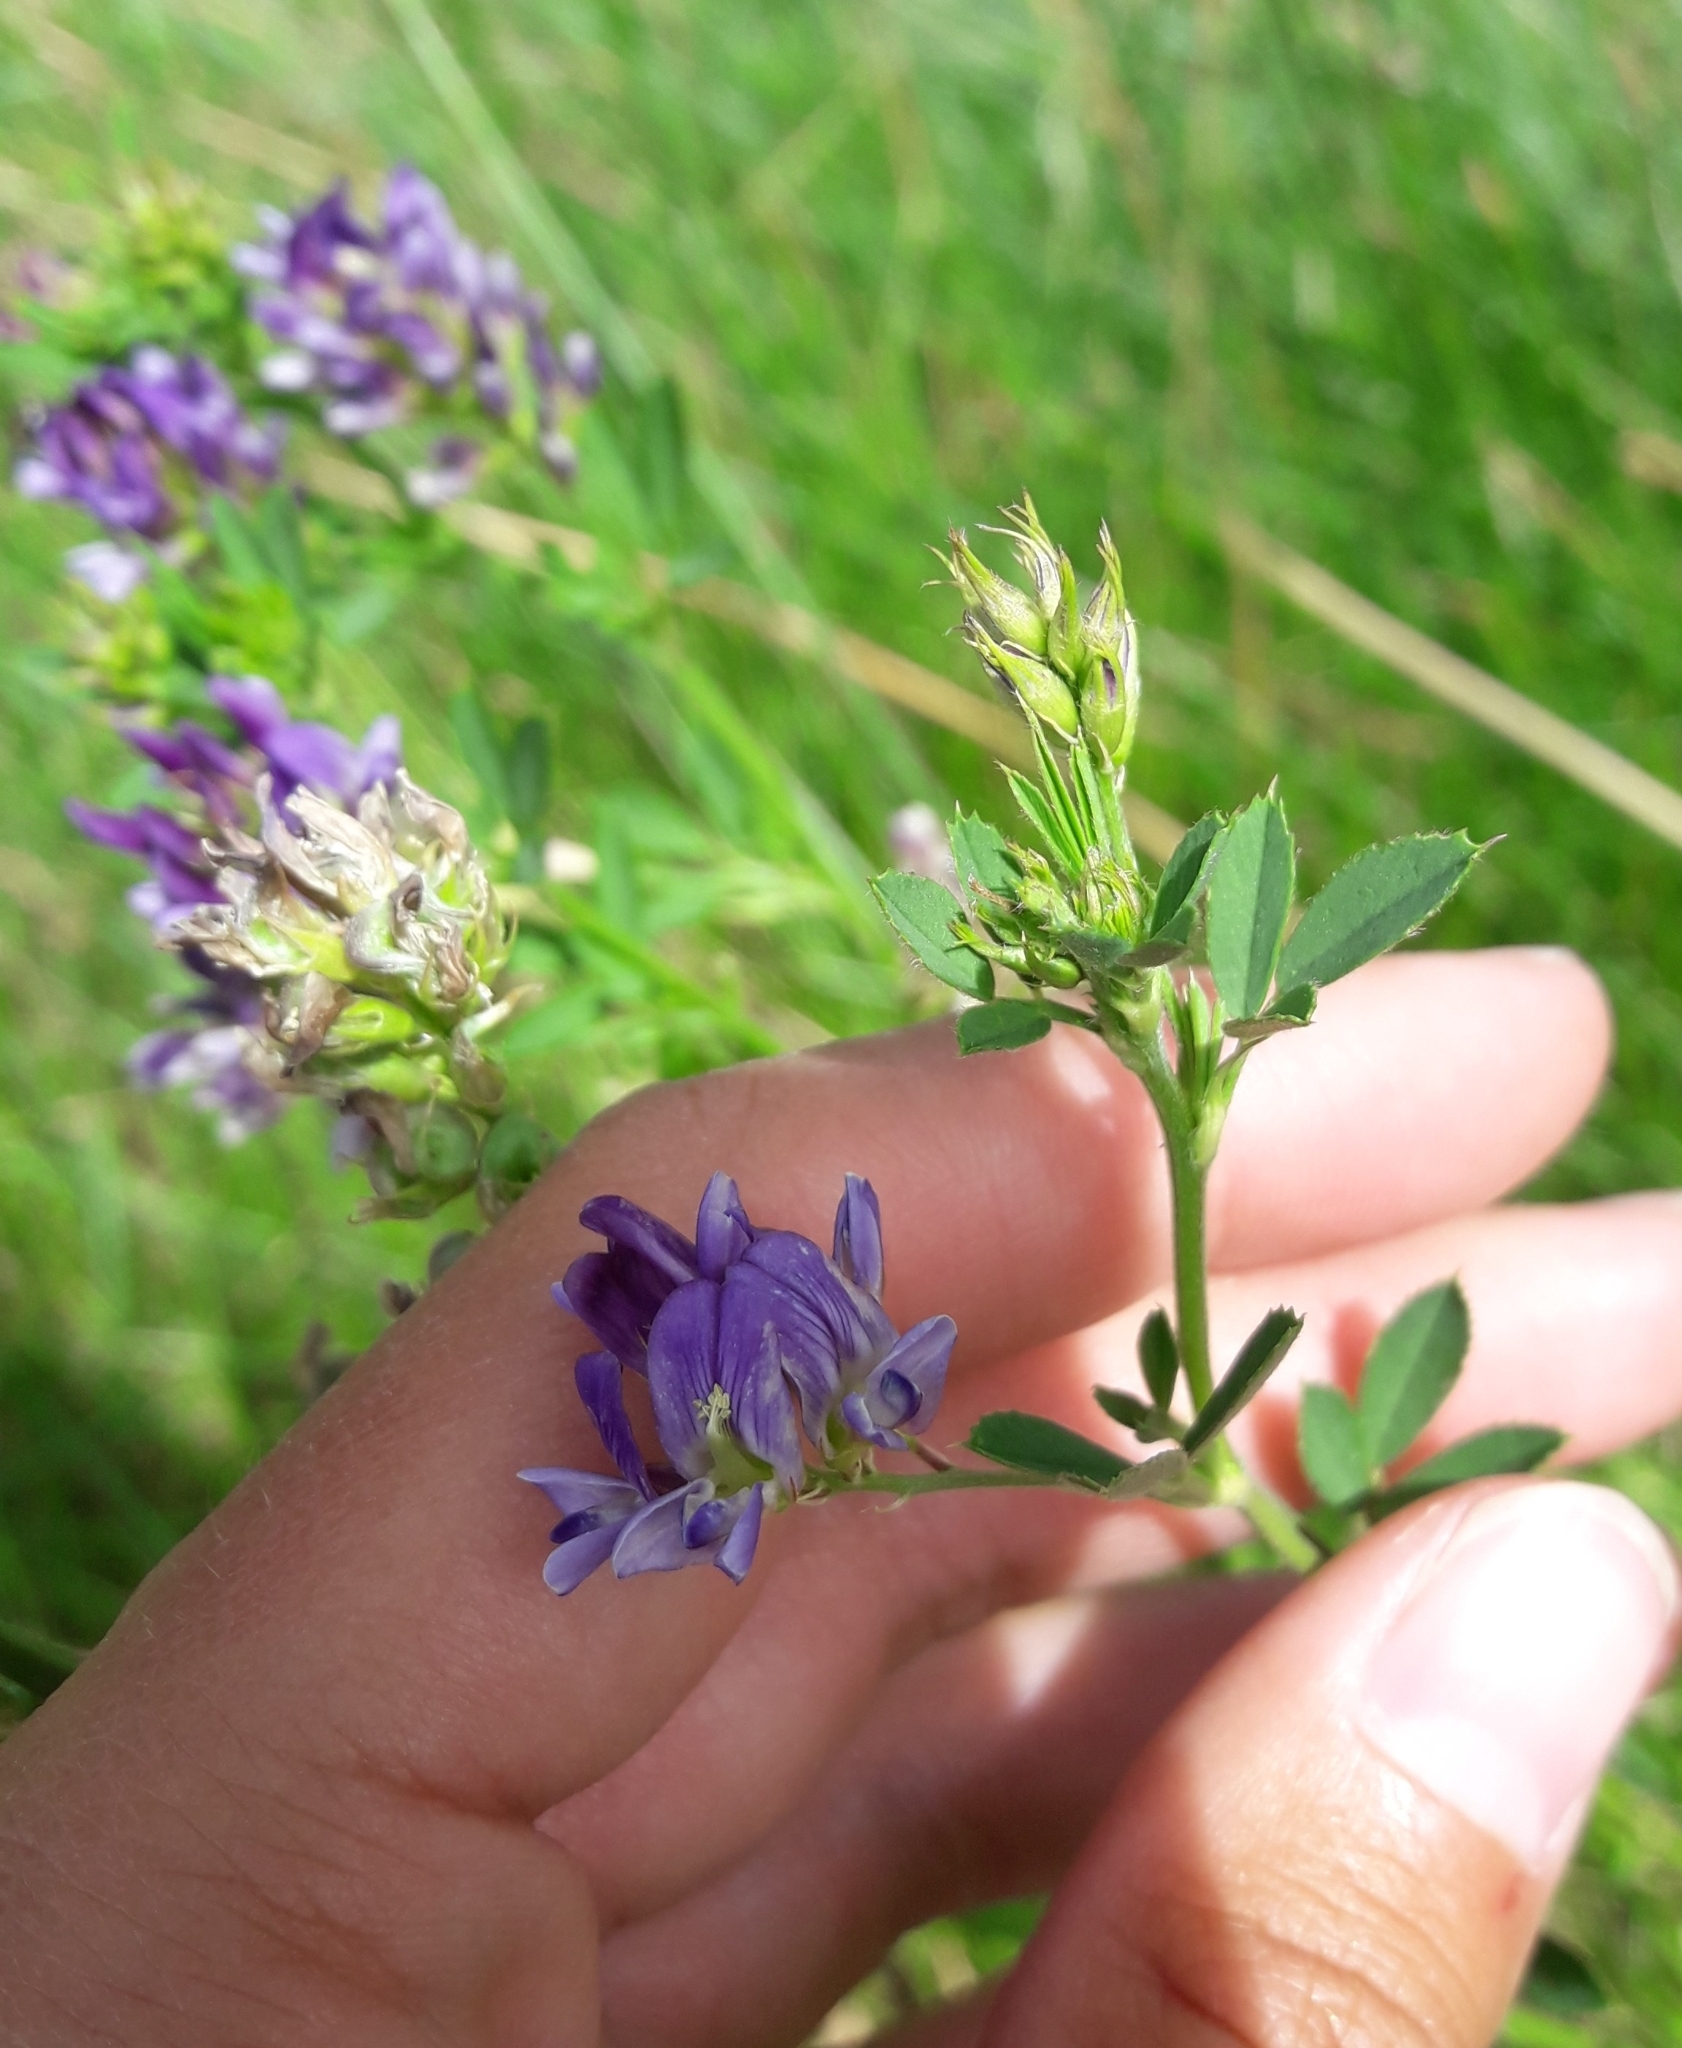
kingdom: Plantae
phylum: Tracheophyta
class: Magnoliopsida
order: Fabales
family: Fabaceae
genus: Medicago
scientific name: Medicago sativa
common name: Alfalfa
